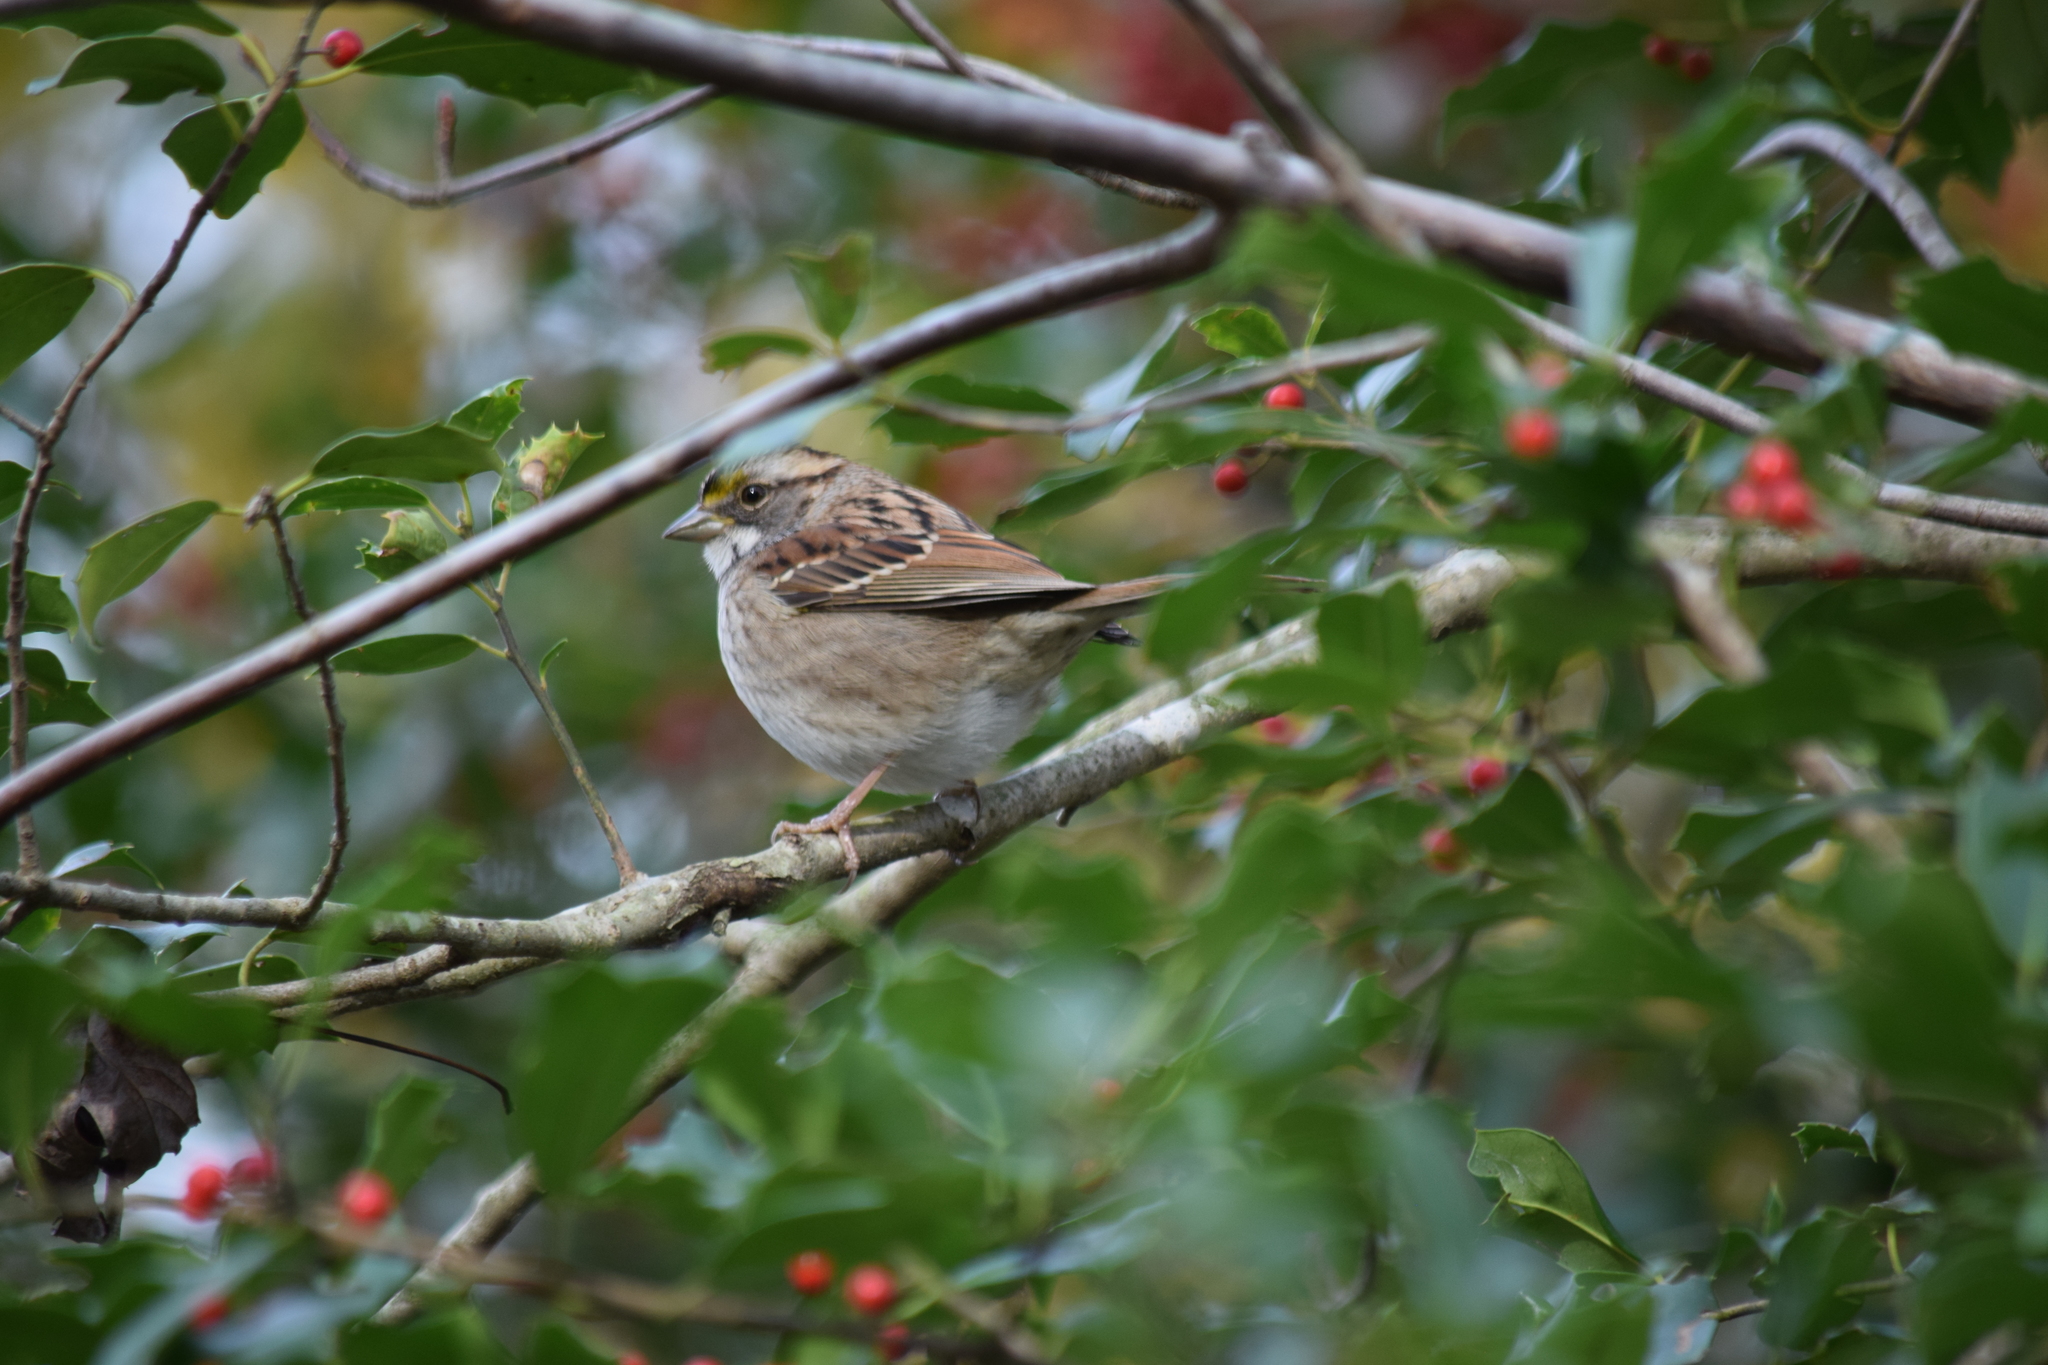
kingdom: Animalia
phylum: Chordata
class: Aves
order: Passeriformes
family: Passerellidae
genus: Zonotrichia
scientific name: Zonotrichia albicollis
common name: White-throated sparrow
